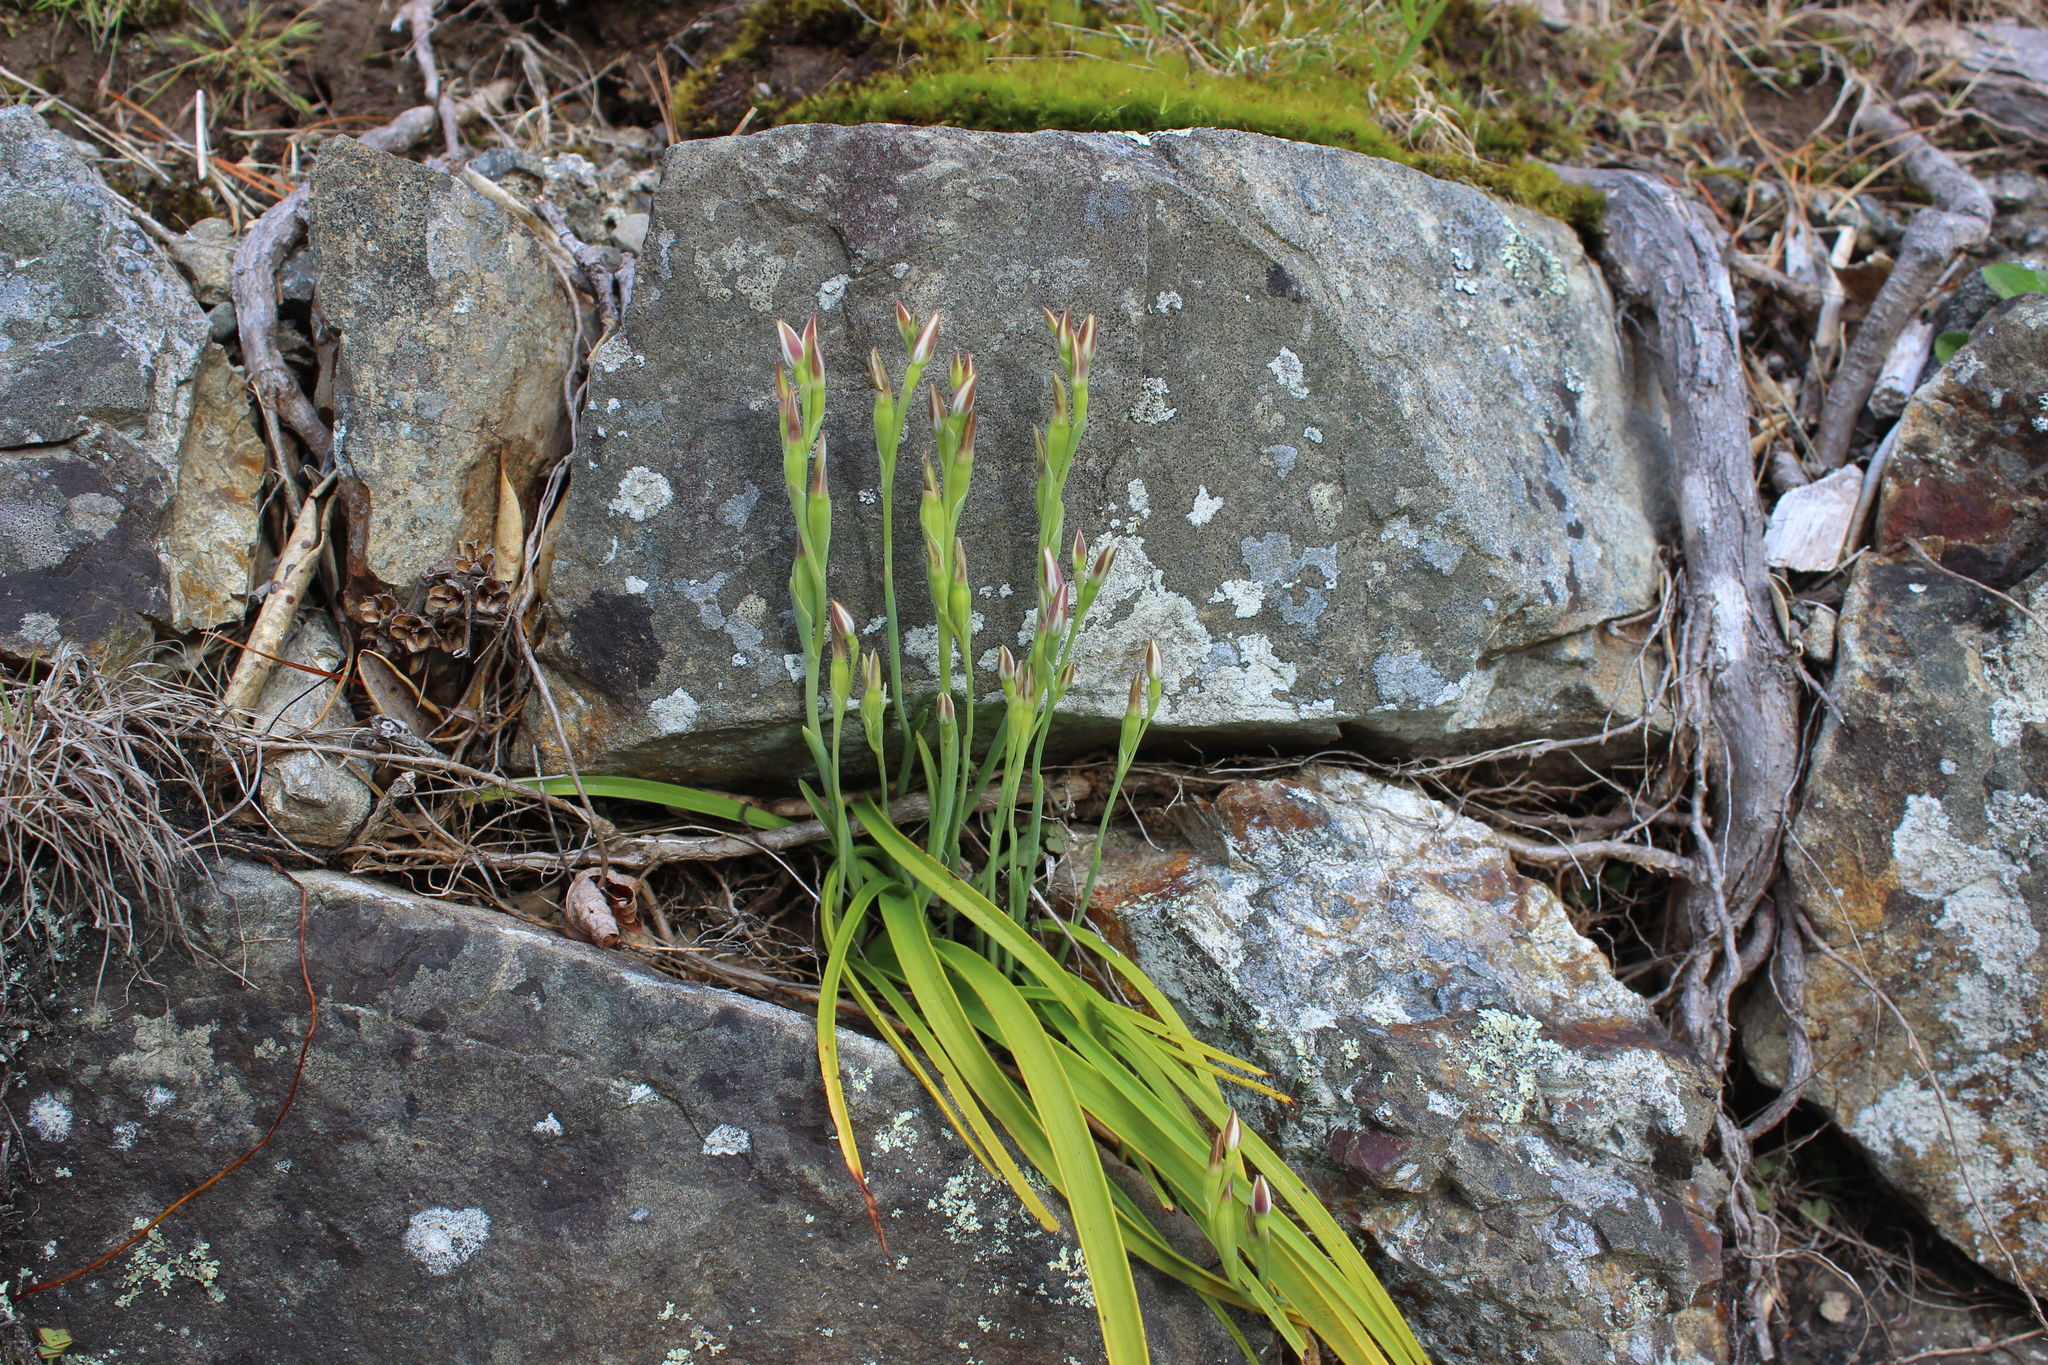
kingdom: Plantae
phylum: Tracheophyta
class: Liliopsida
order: Asparagales
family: Orchidaceae
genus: Thelymitra
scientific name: Thelymitra longifolia
